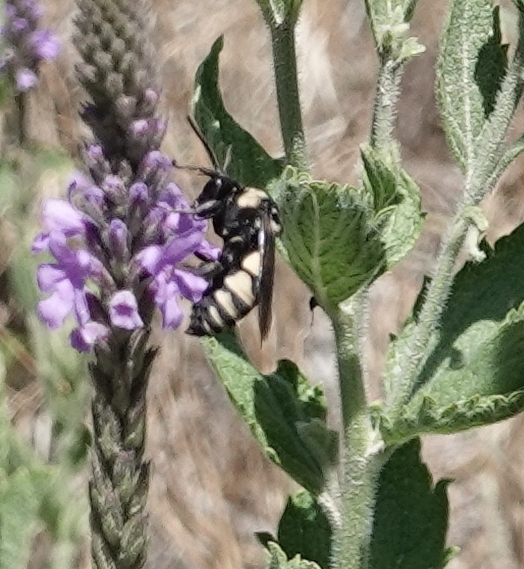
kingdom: Animalia
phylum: Arthropoda
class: Insecta
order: Hymenoptera
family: Apidae
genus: Triepeolus
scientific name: Triepeolus concavus
